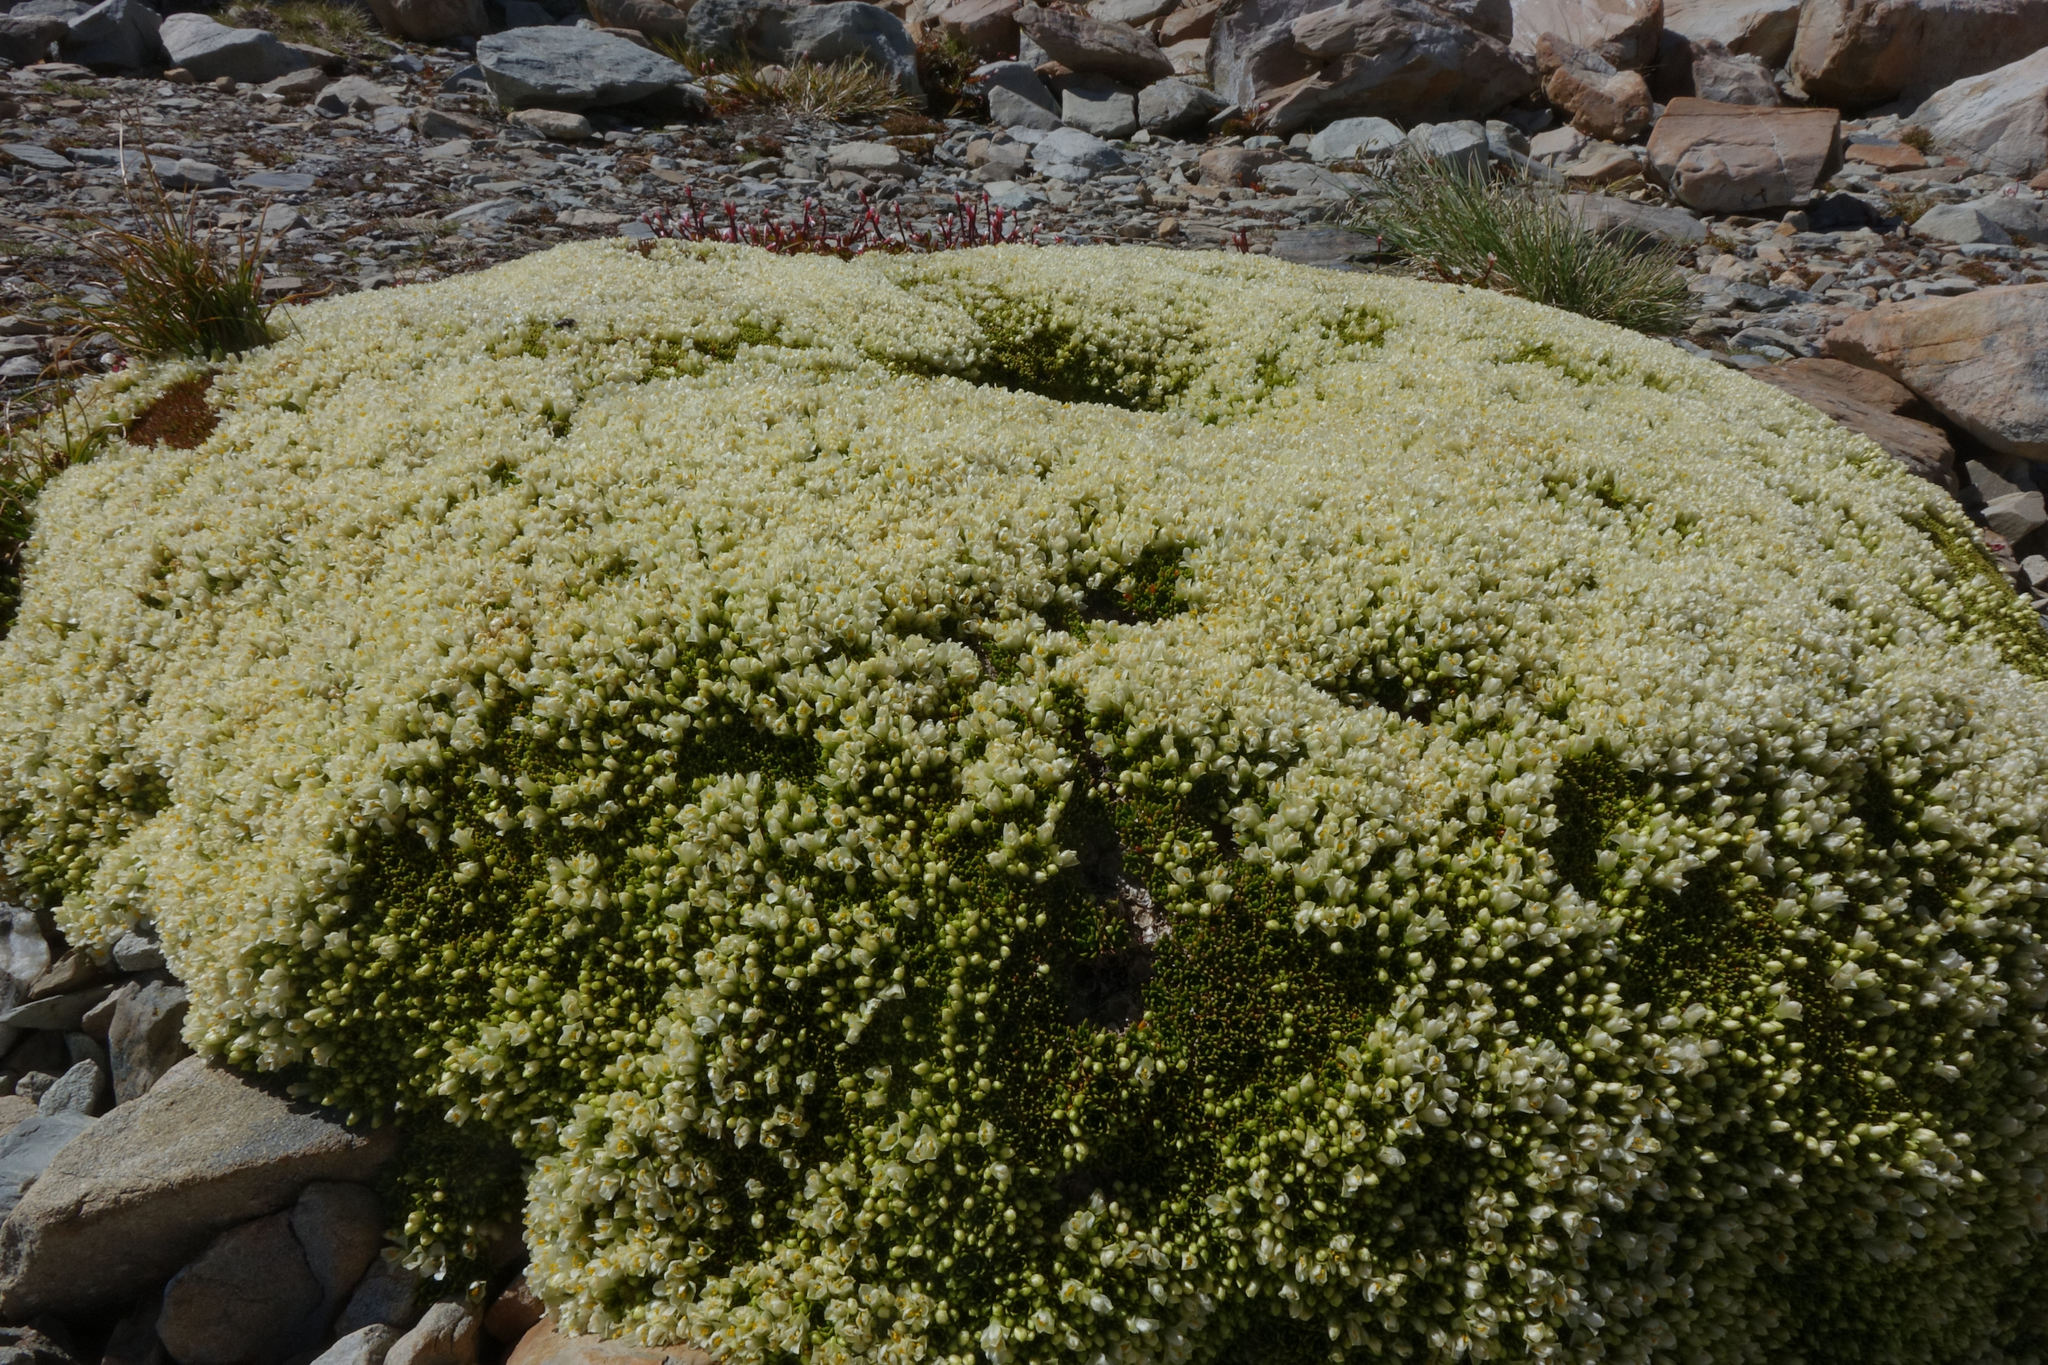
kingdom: Plantae
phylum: Tracheophyta
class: Magnoliopsida
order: Caryophyllales
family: Montiaceae
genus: Hectorella
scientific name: Hectorella caespitosa
